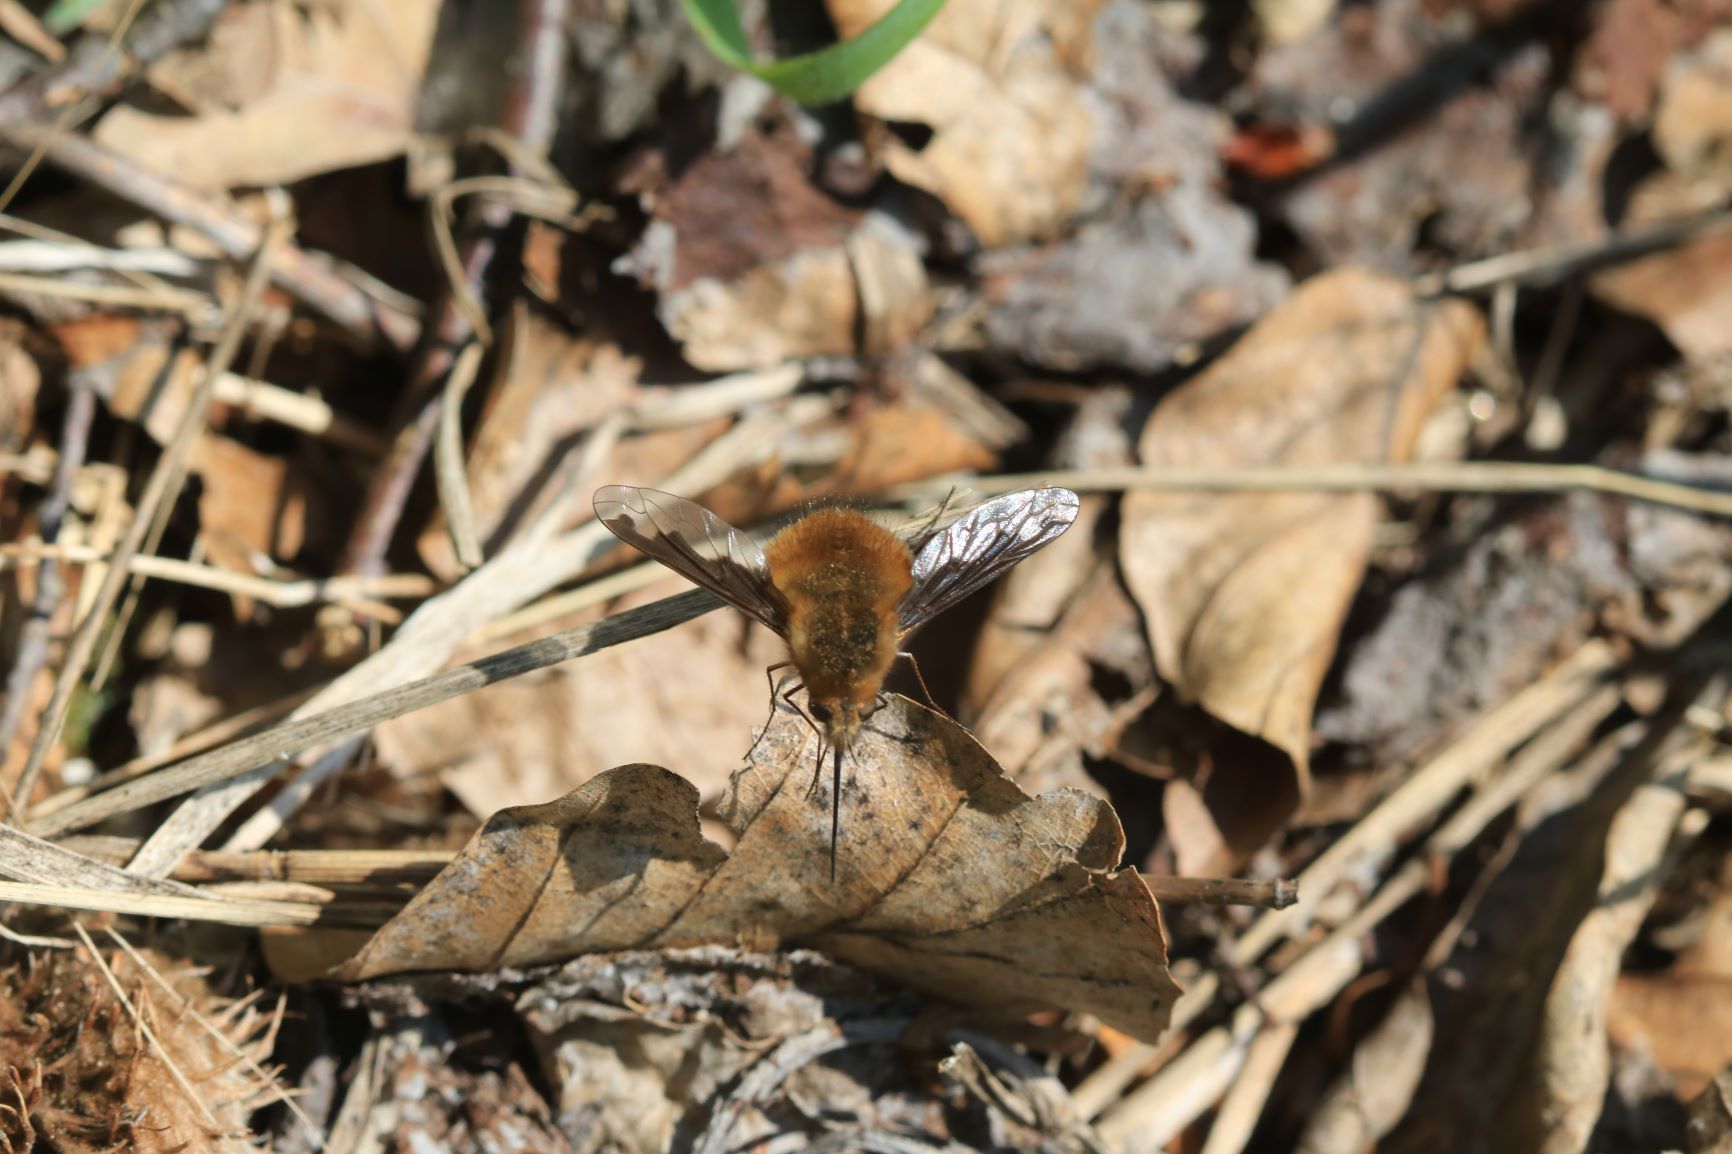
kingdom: Animalia
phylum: Arthropoda
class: Insecta
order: Diptera
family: Bombyliidae
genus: Bombylius
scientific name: Bombylius major
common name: Bee fly
